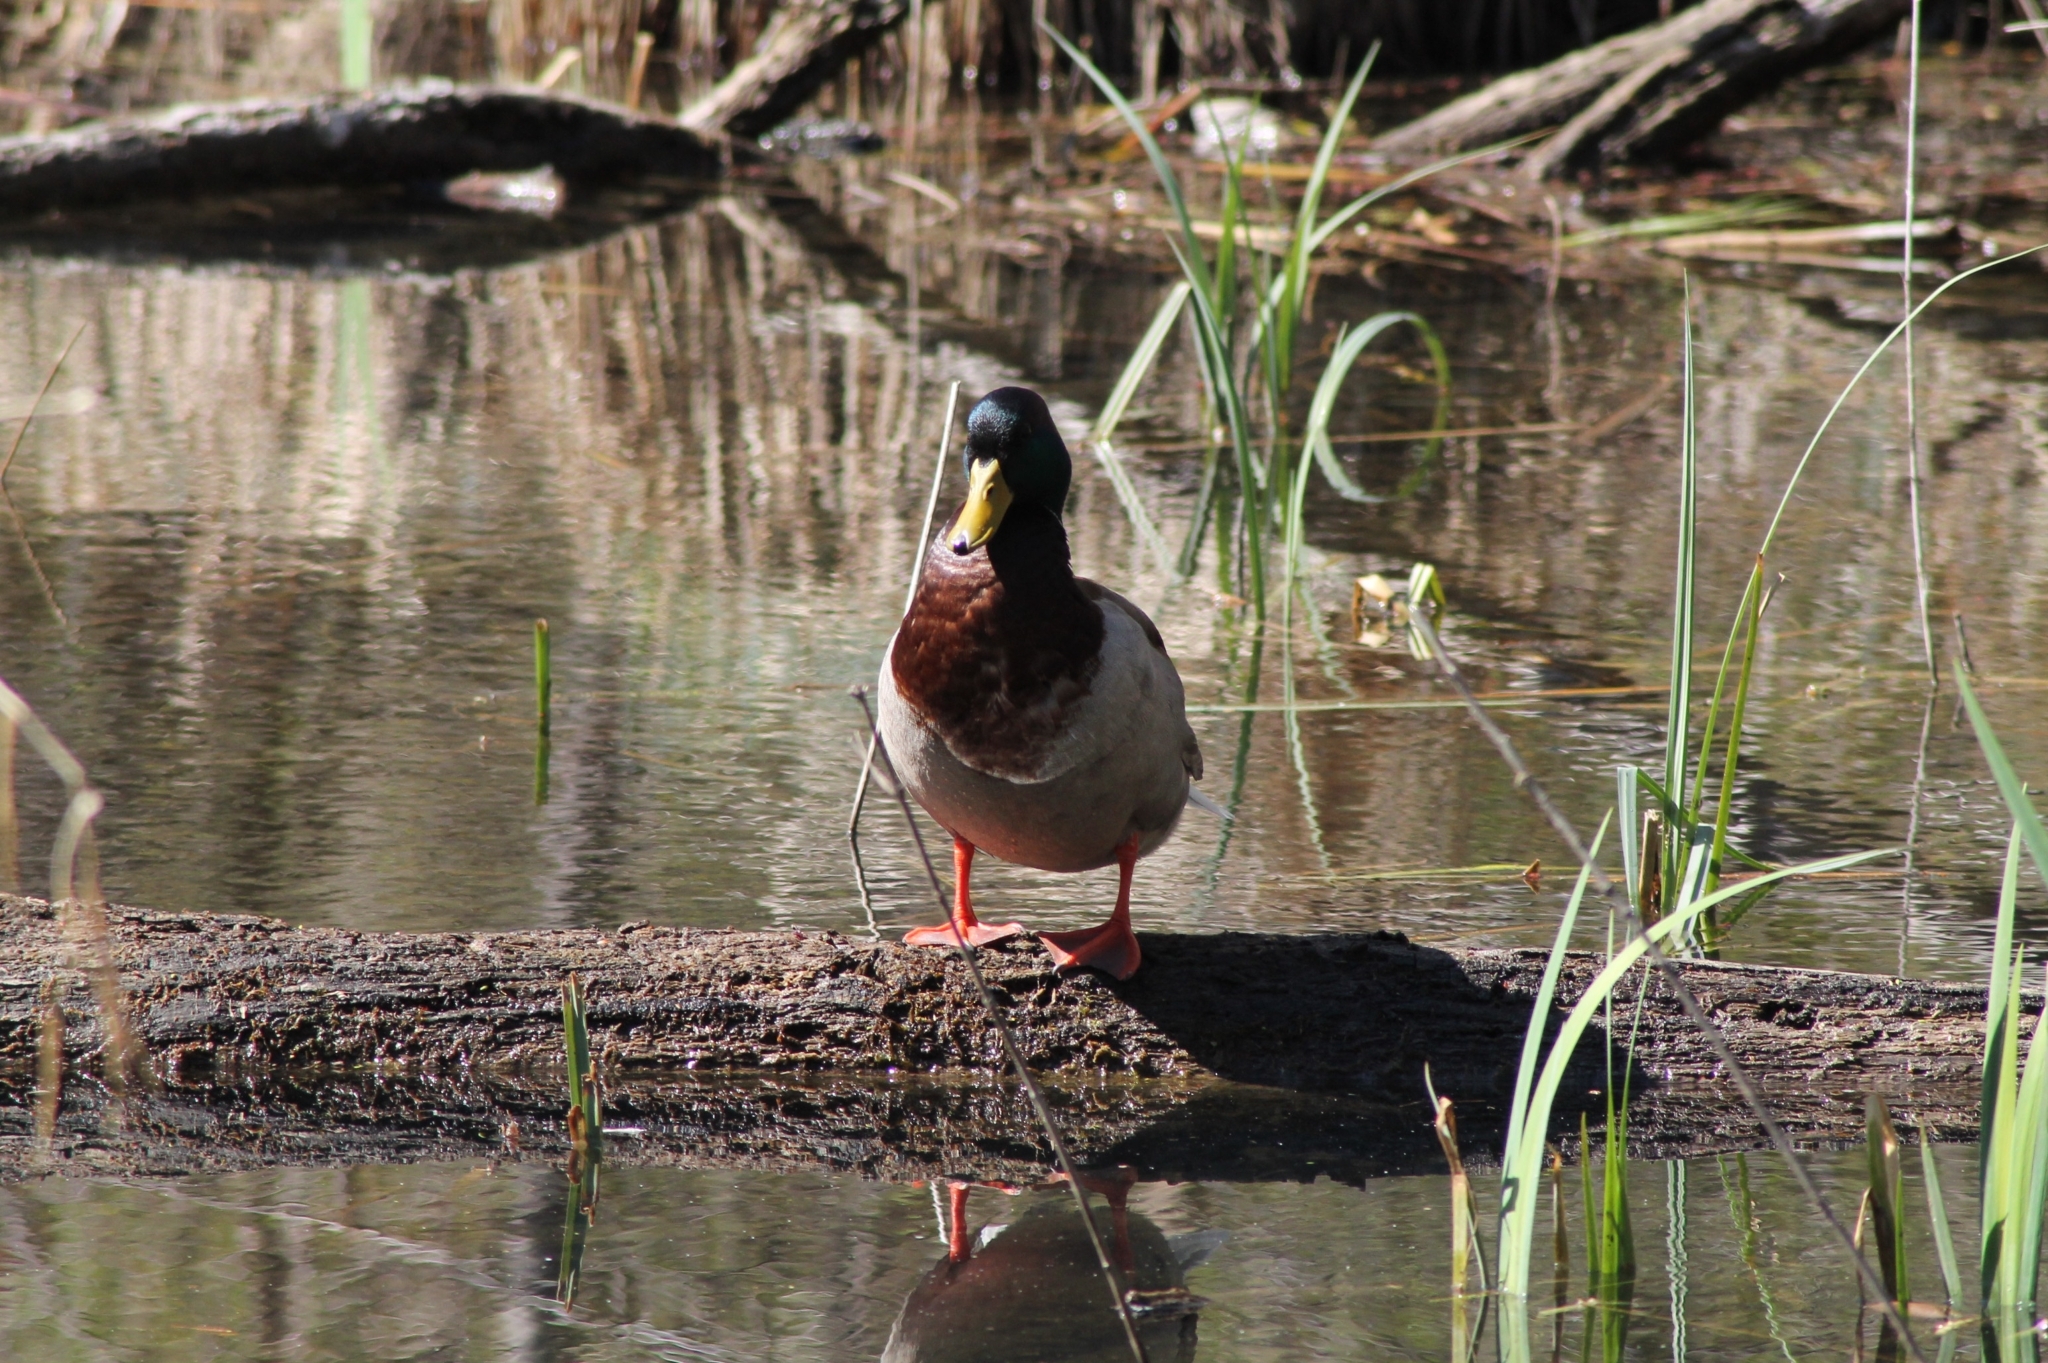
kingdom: Animalia
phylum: Chordata
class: Aves
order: Anseriformes
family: Anatidae
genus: Anas
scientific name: Anas platyrhynchos
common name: Mallard
